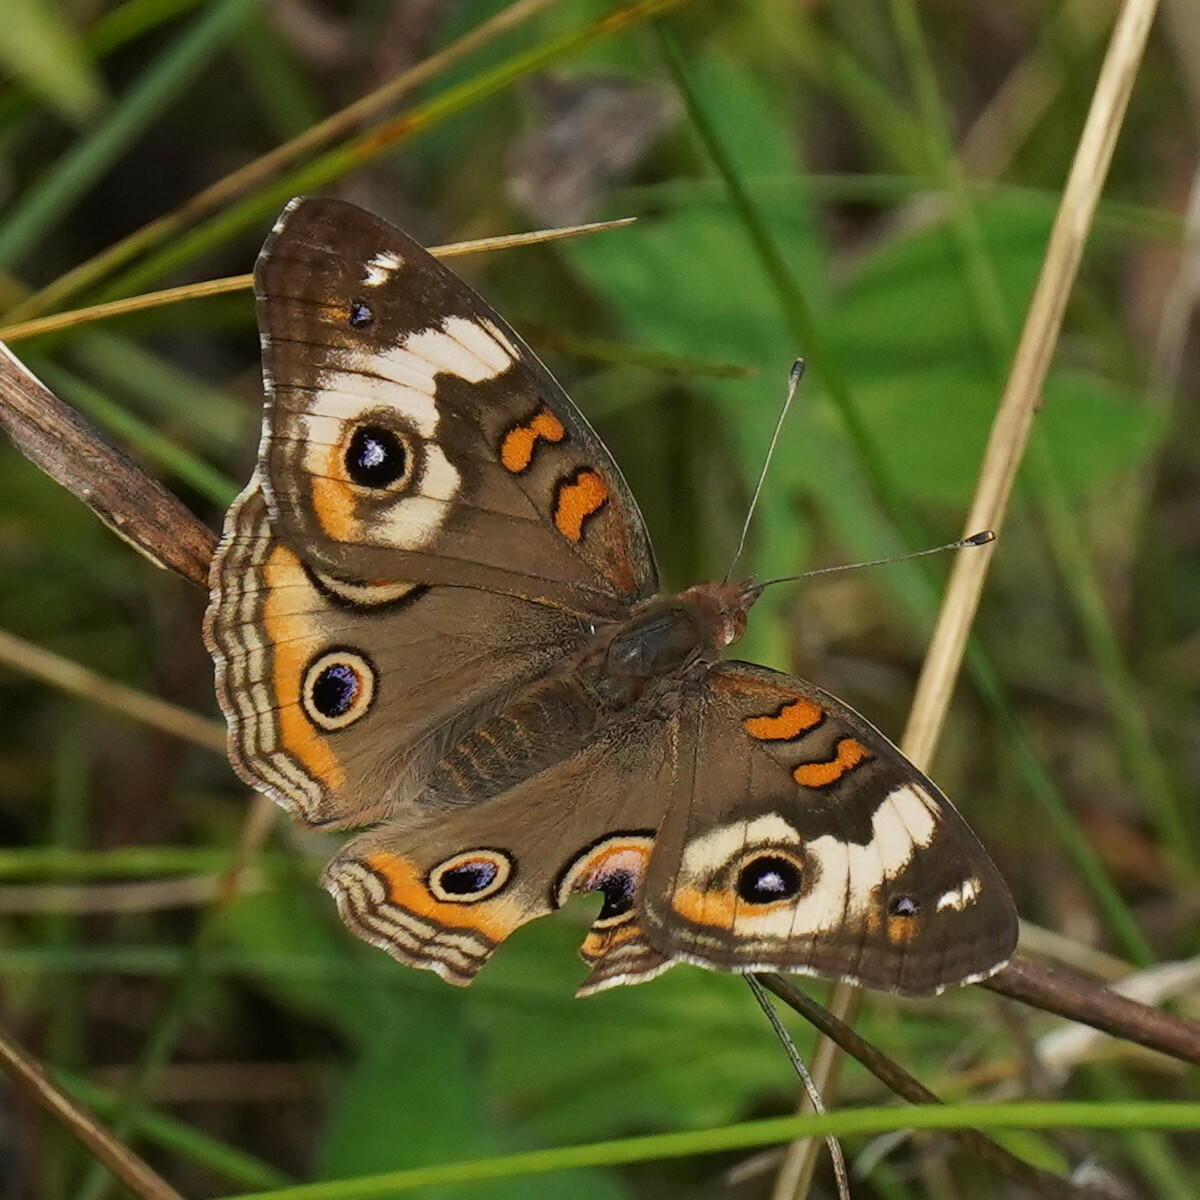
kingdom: Animalia
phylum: Arthropoda
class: Insecta
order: Lepidoptera
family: Nymphalidae
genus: Junonia
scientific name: Junonia coenia
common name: Common buckeye
